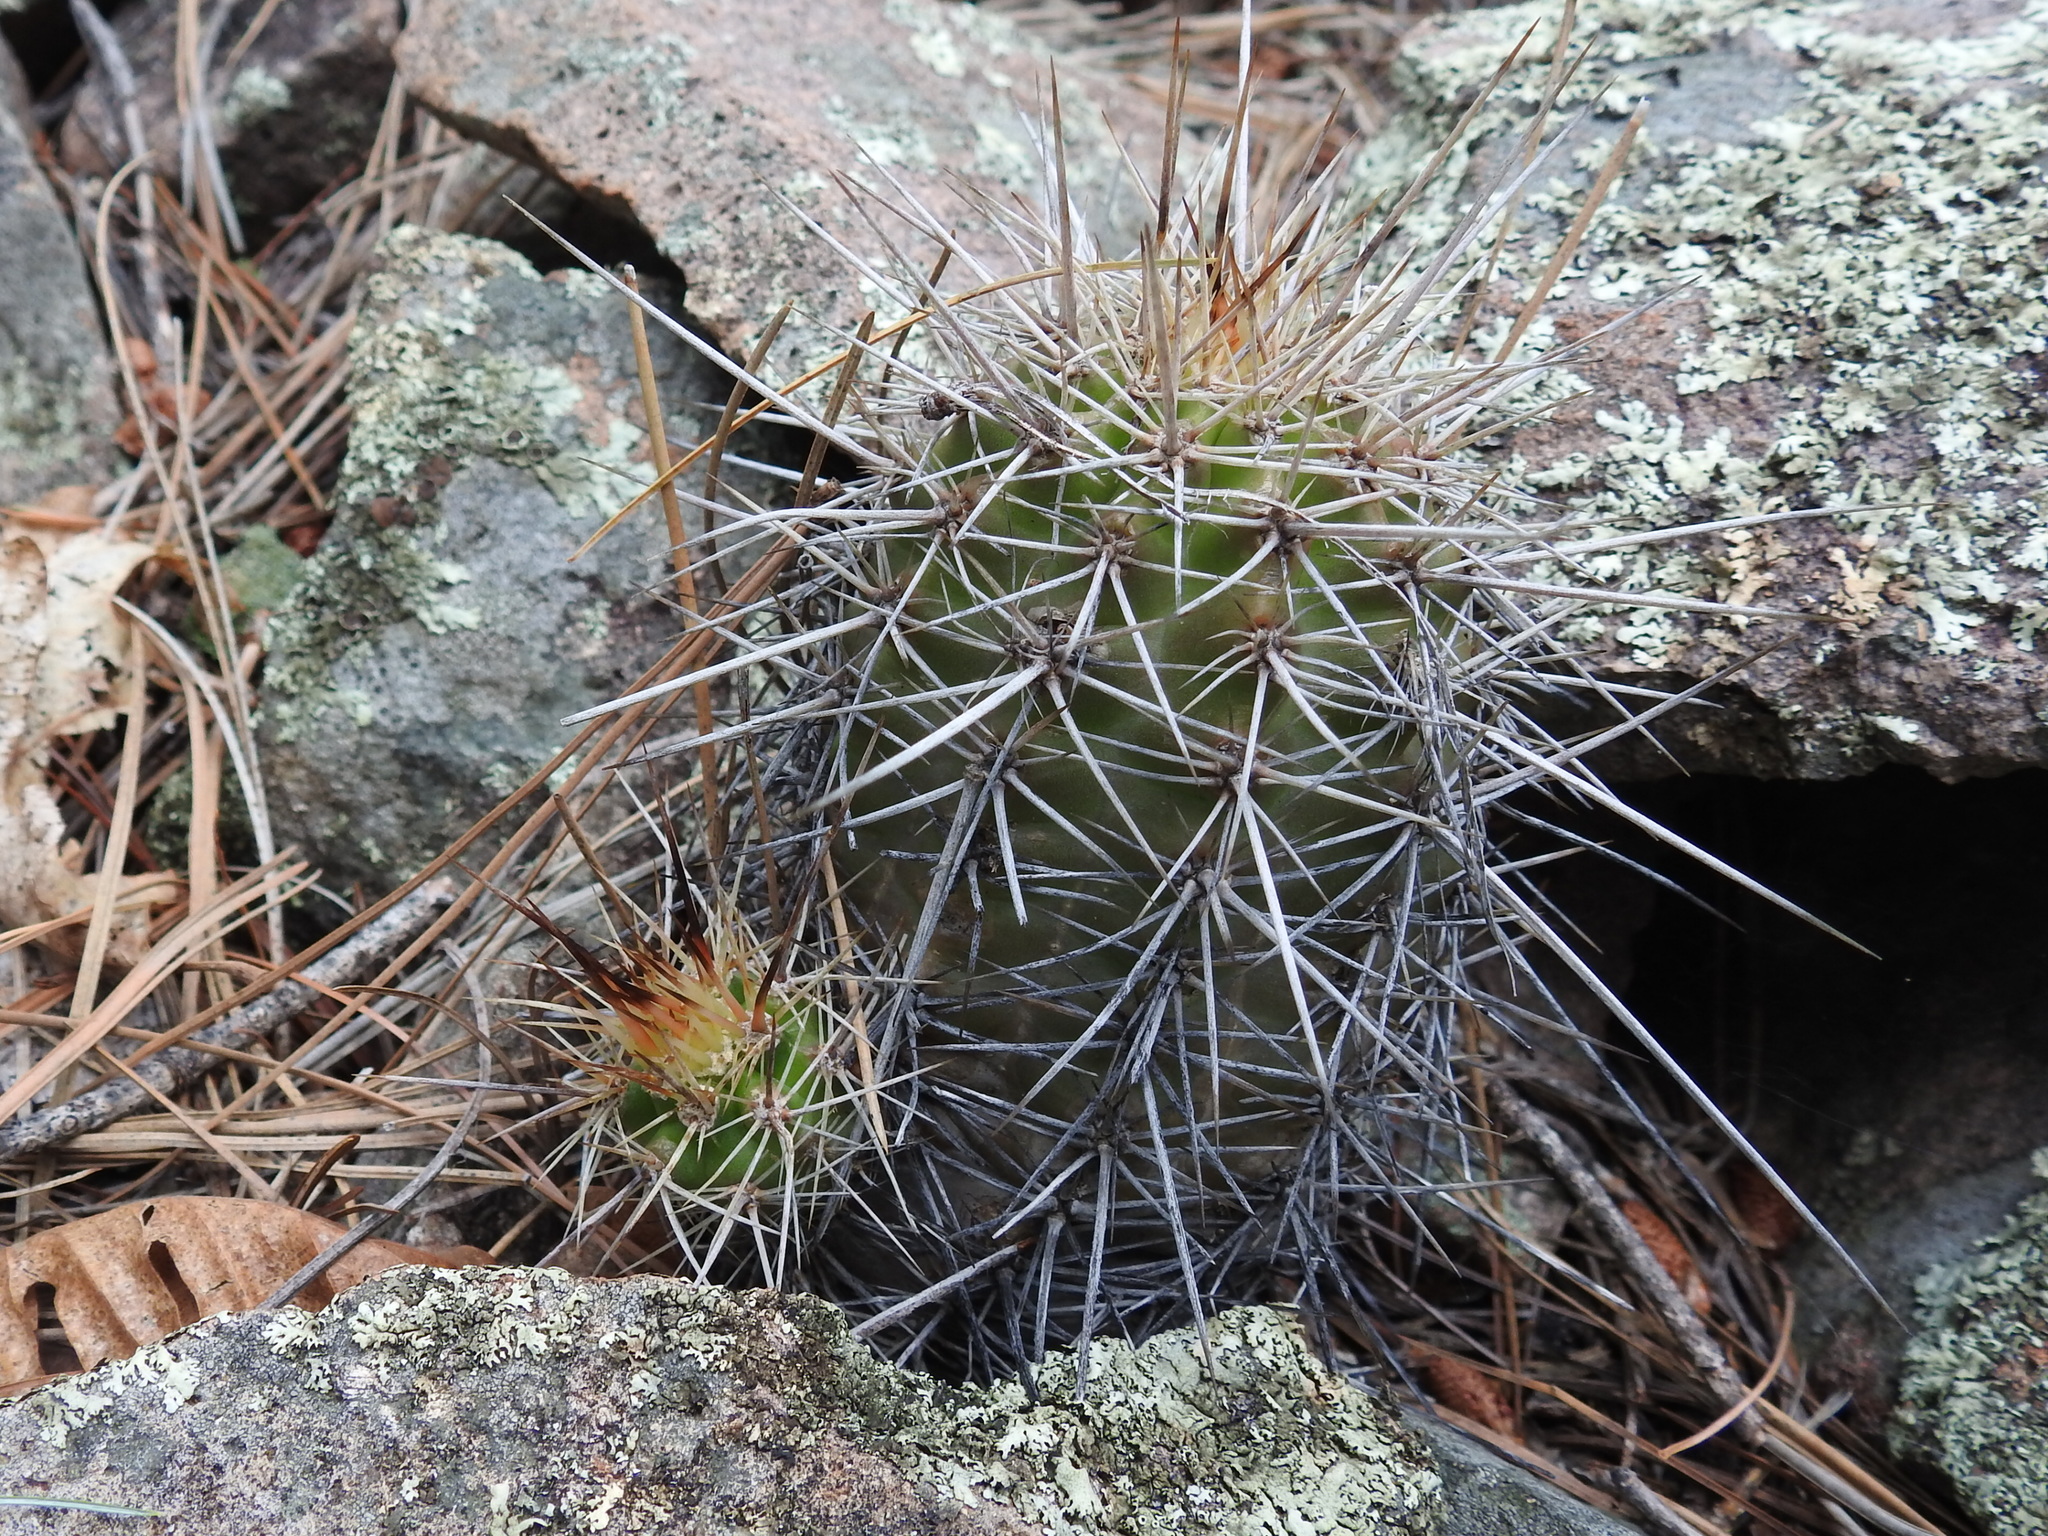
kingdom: Plantae
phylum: Tracheophyta
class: Magnoliopsida
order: Caryophyllales
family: Cactaceae
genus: Echinocereus
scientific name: Echinocereus coccineus
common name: Scarlet hedgehog cactus
